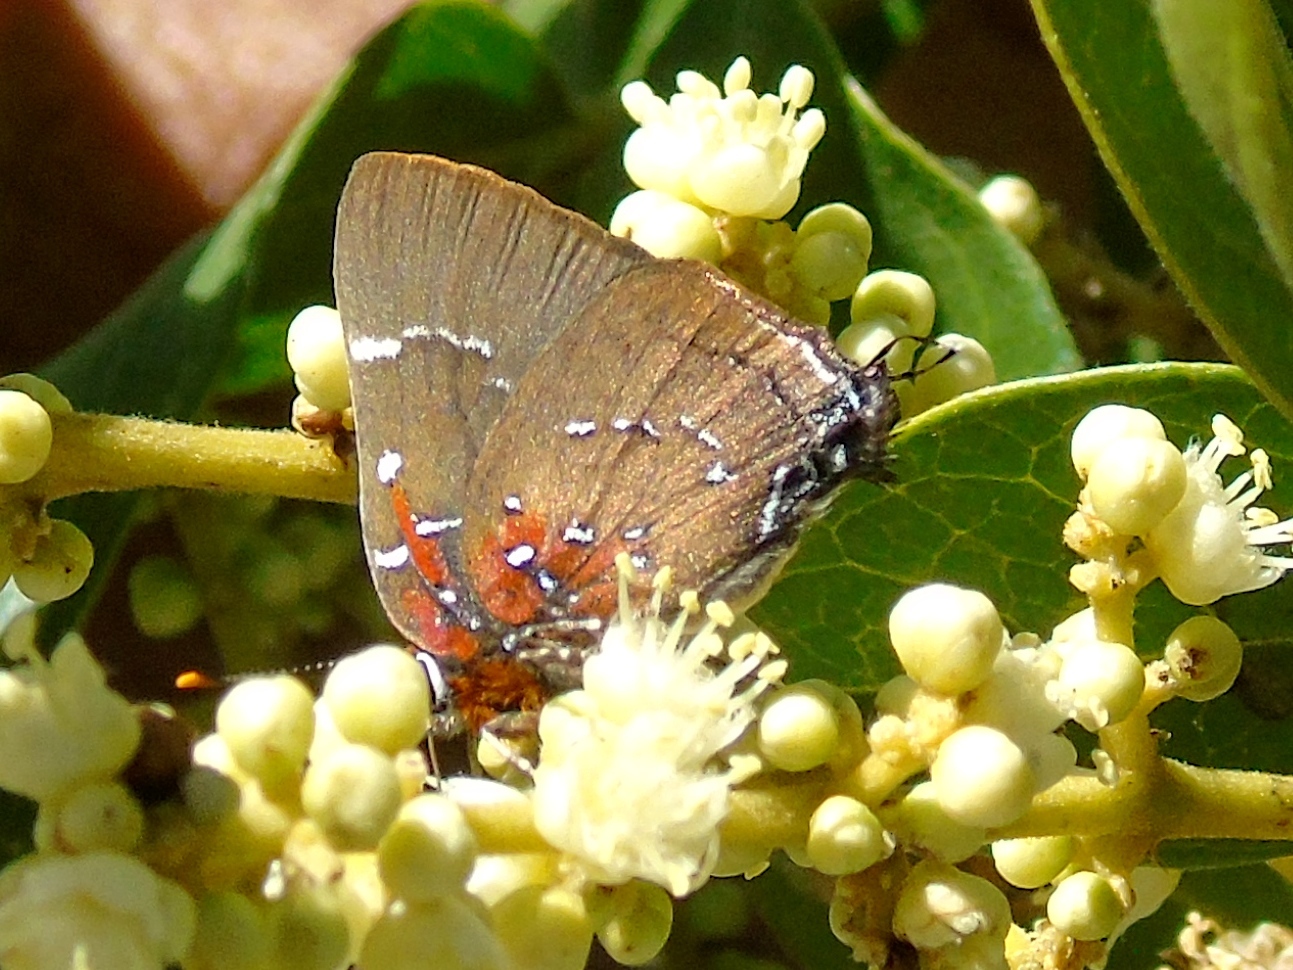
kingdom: Animalia
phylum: Arthropoda
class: Insecta
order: Lepidoptera
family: Lycaenidae
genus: Atlides
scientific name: Atlides Brangas neora
